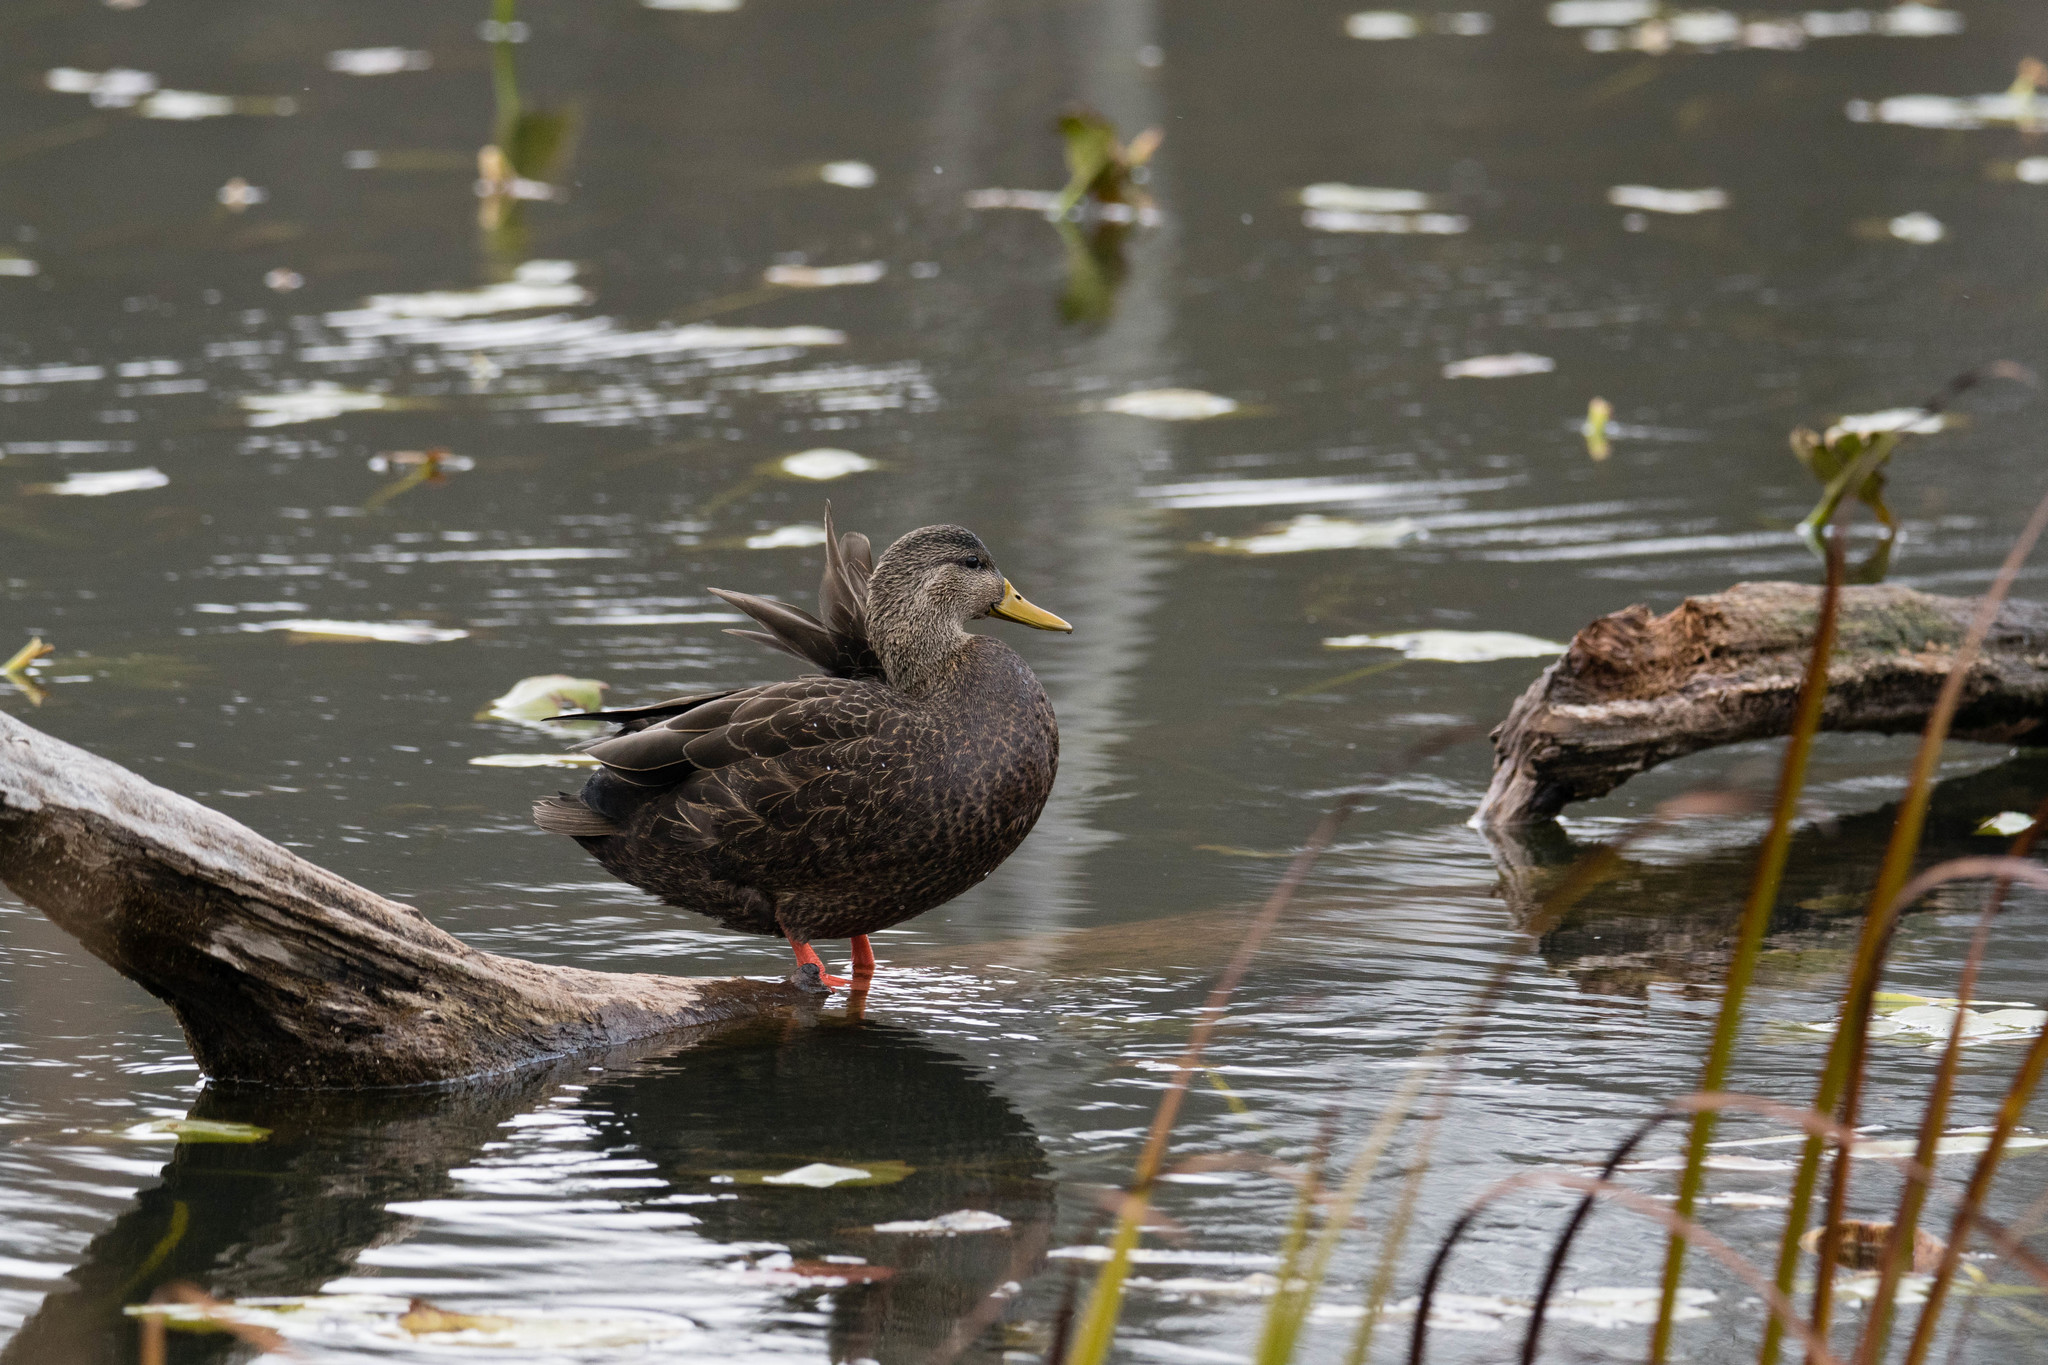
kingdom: Animalia
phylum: Chordata
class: Aves
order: Anseriformes
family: Anatidae
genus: Anas
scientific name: Anas rubripes
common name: American black duck
